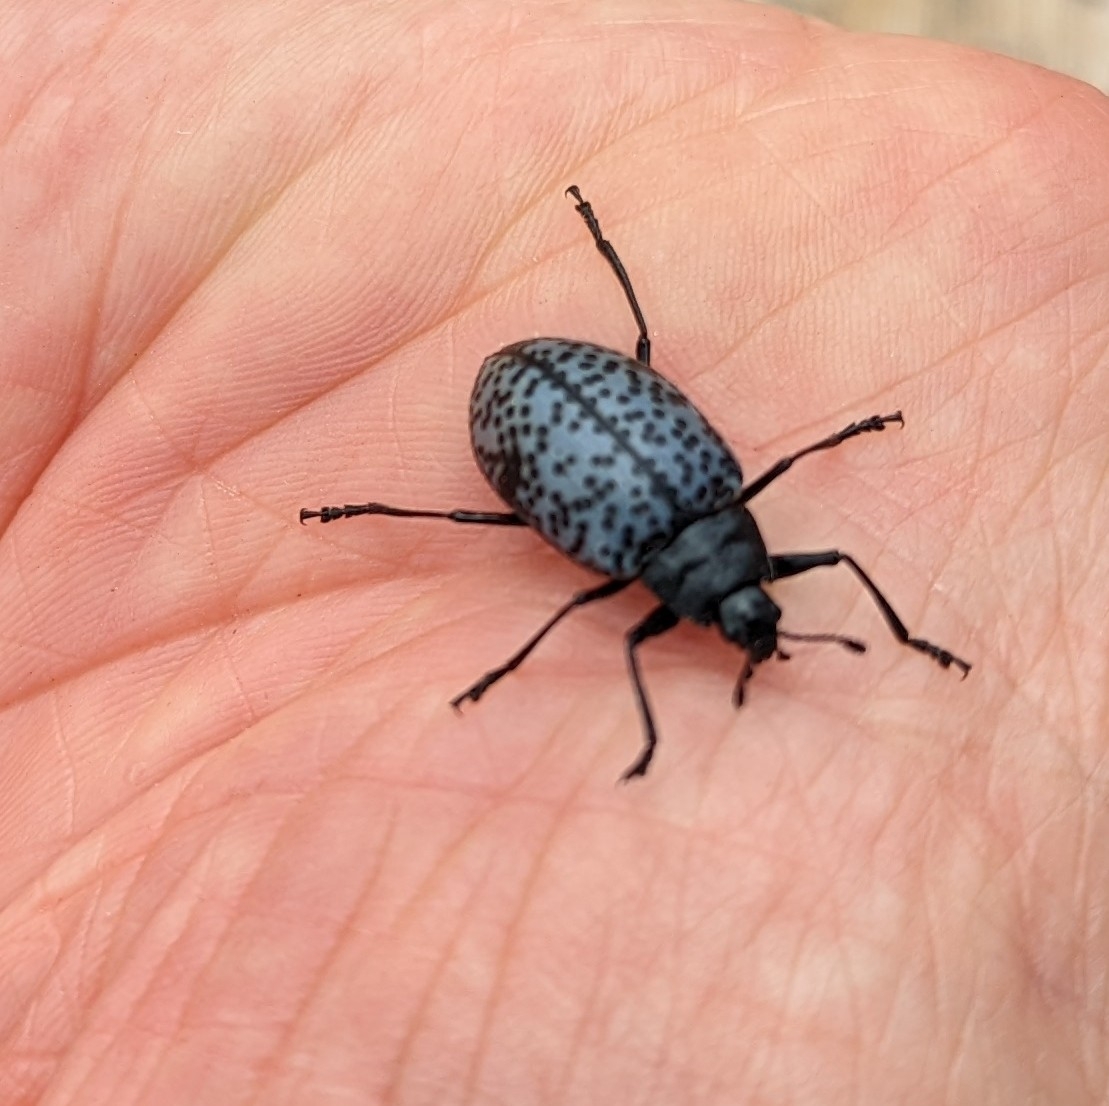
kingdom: Animalia
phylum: Arthropoda
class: Insecta
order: Coleoptera
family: Erotylidae
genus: Gibbifer
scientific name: Gibbifer californicus
